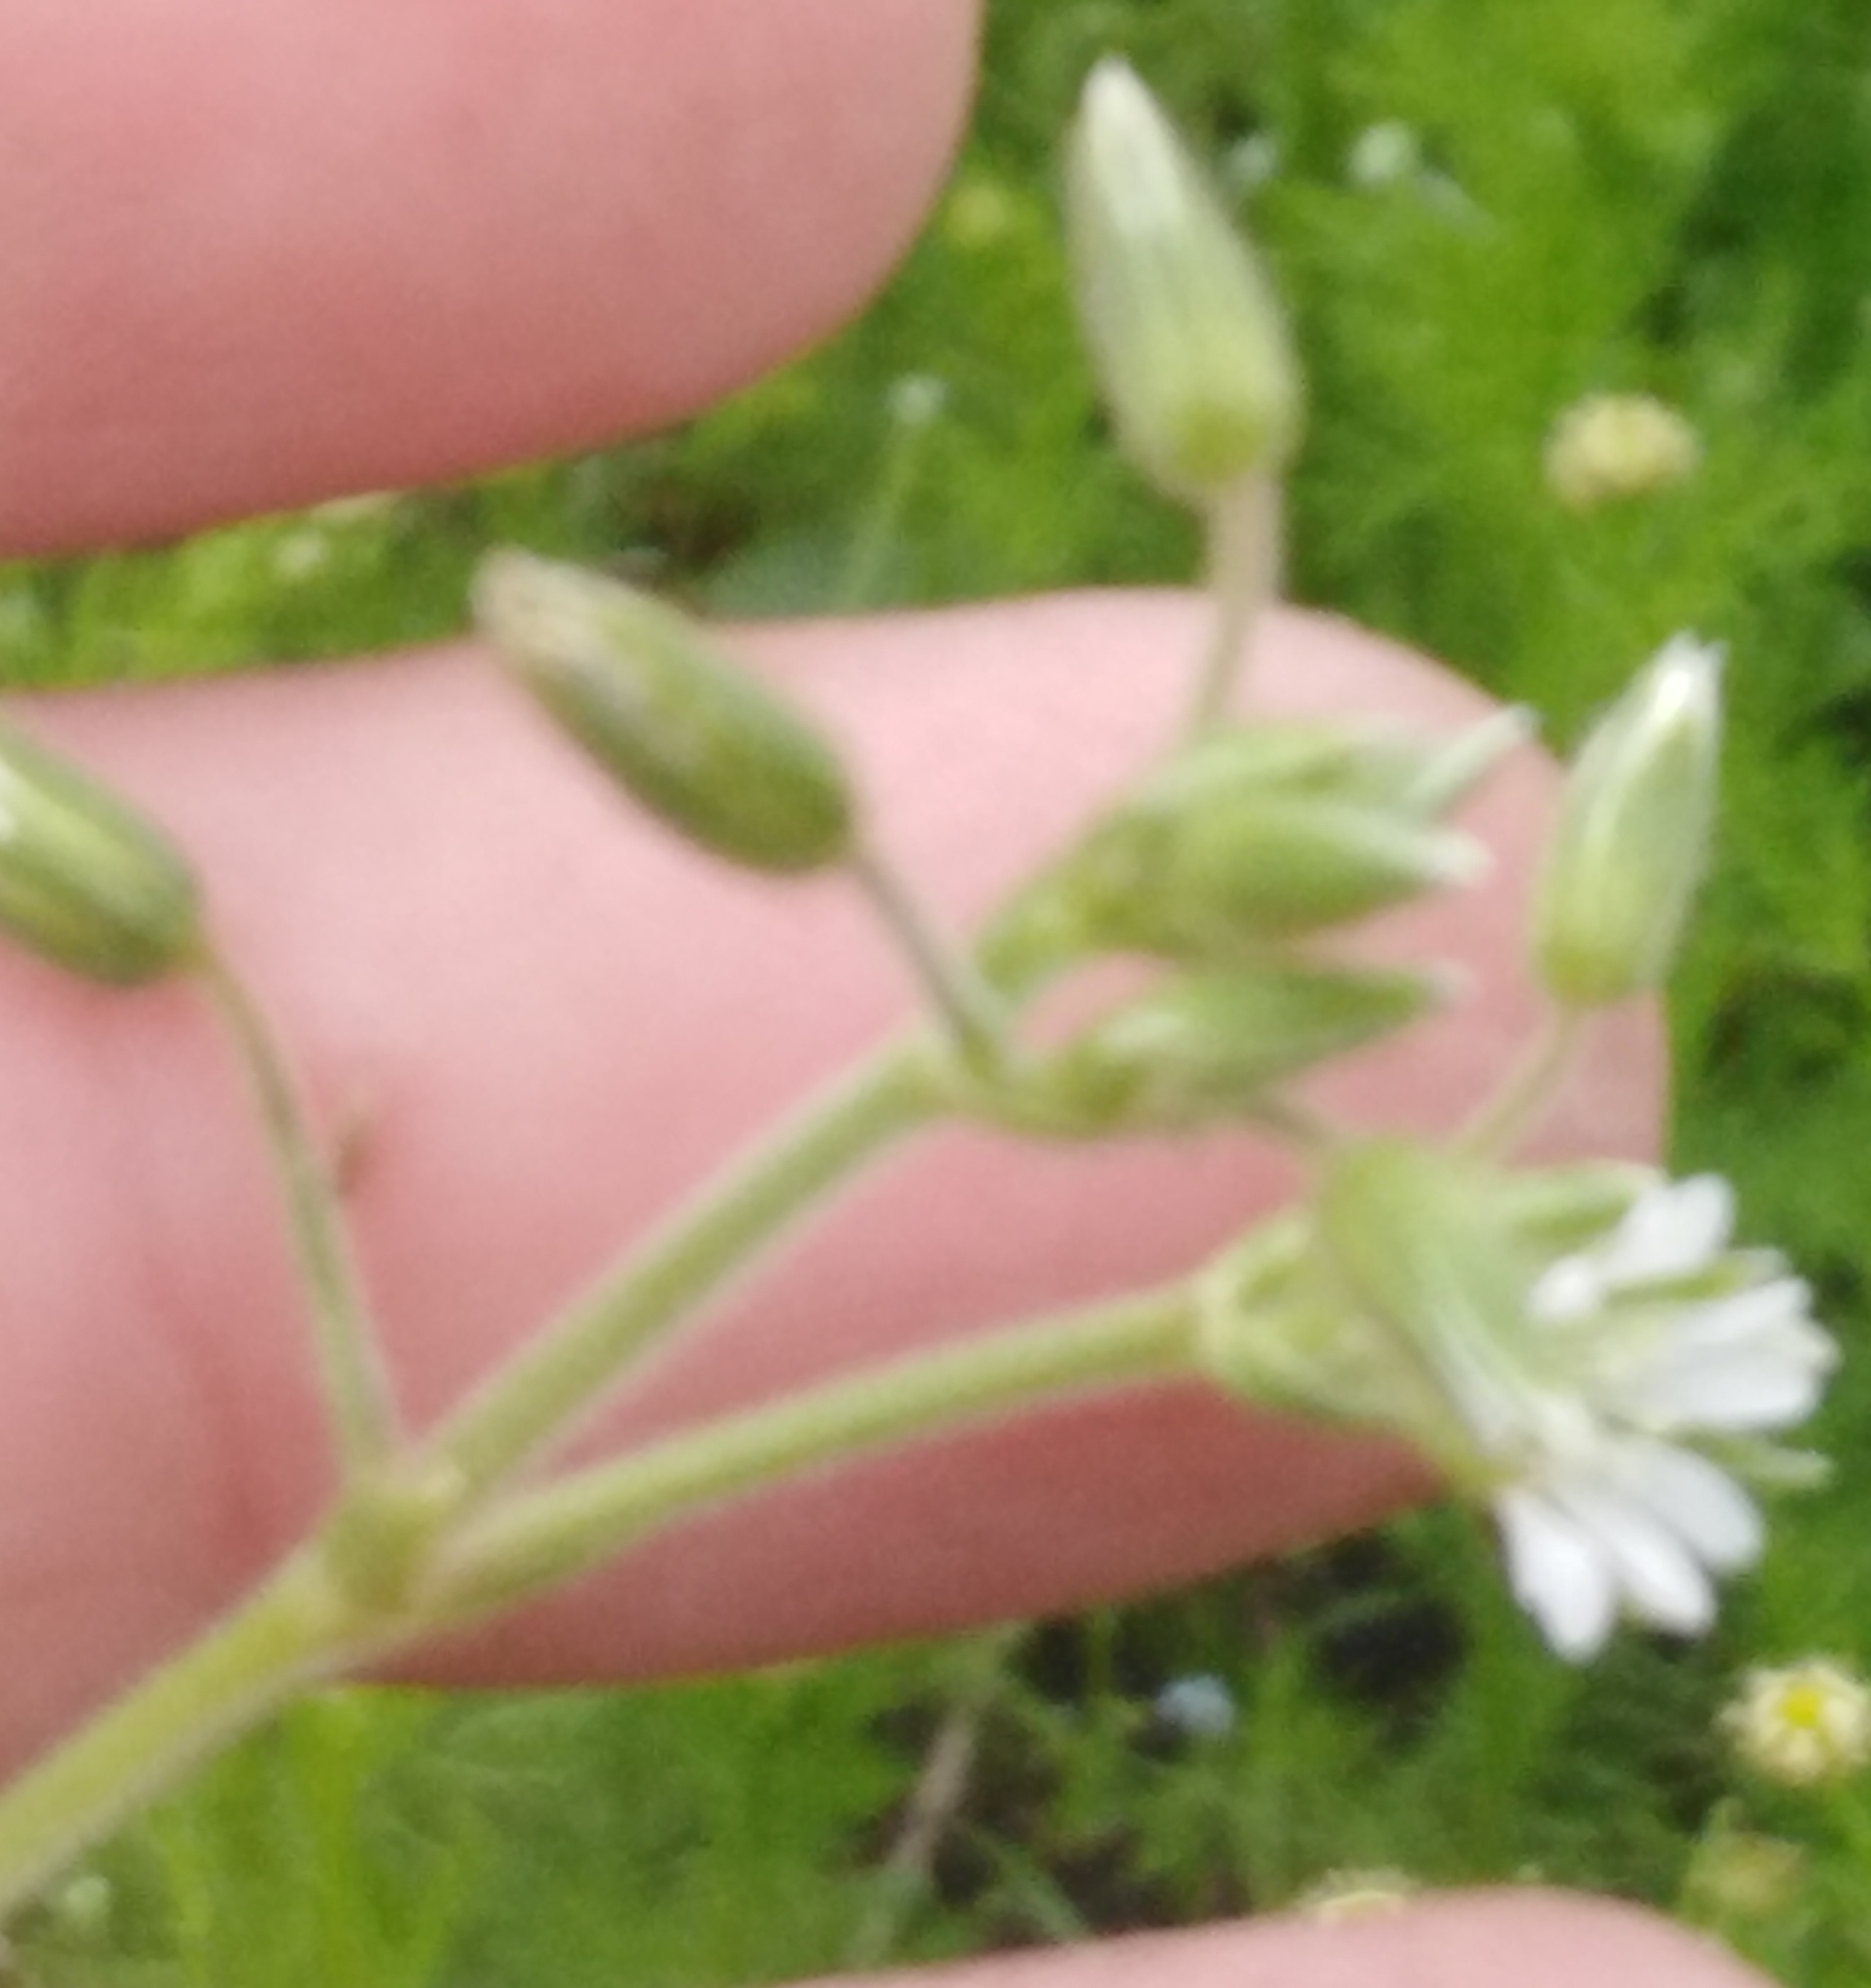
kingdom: Plantae
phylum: Tracheophyta
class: Magnoliopsida
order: Caryophyllales
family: Caryophyllaceae
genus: Cerastium
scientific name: Cerastium holosteoides
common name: Big chickweed
